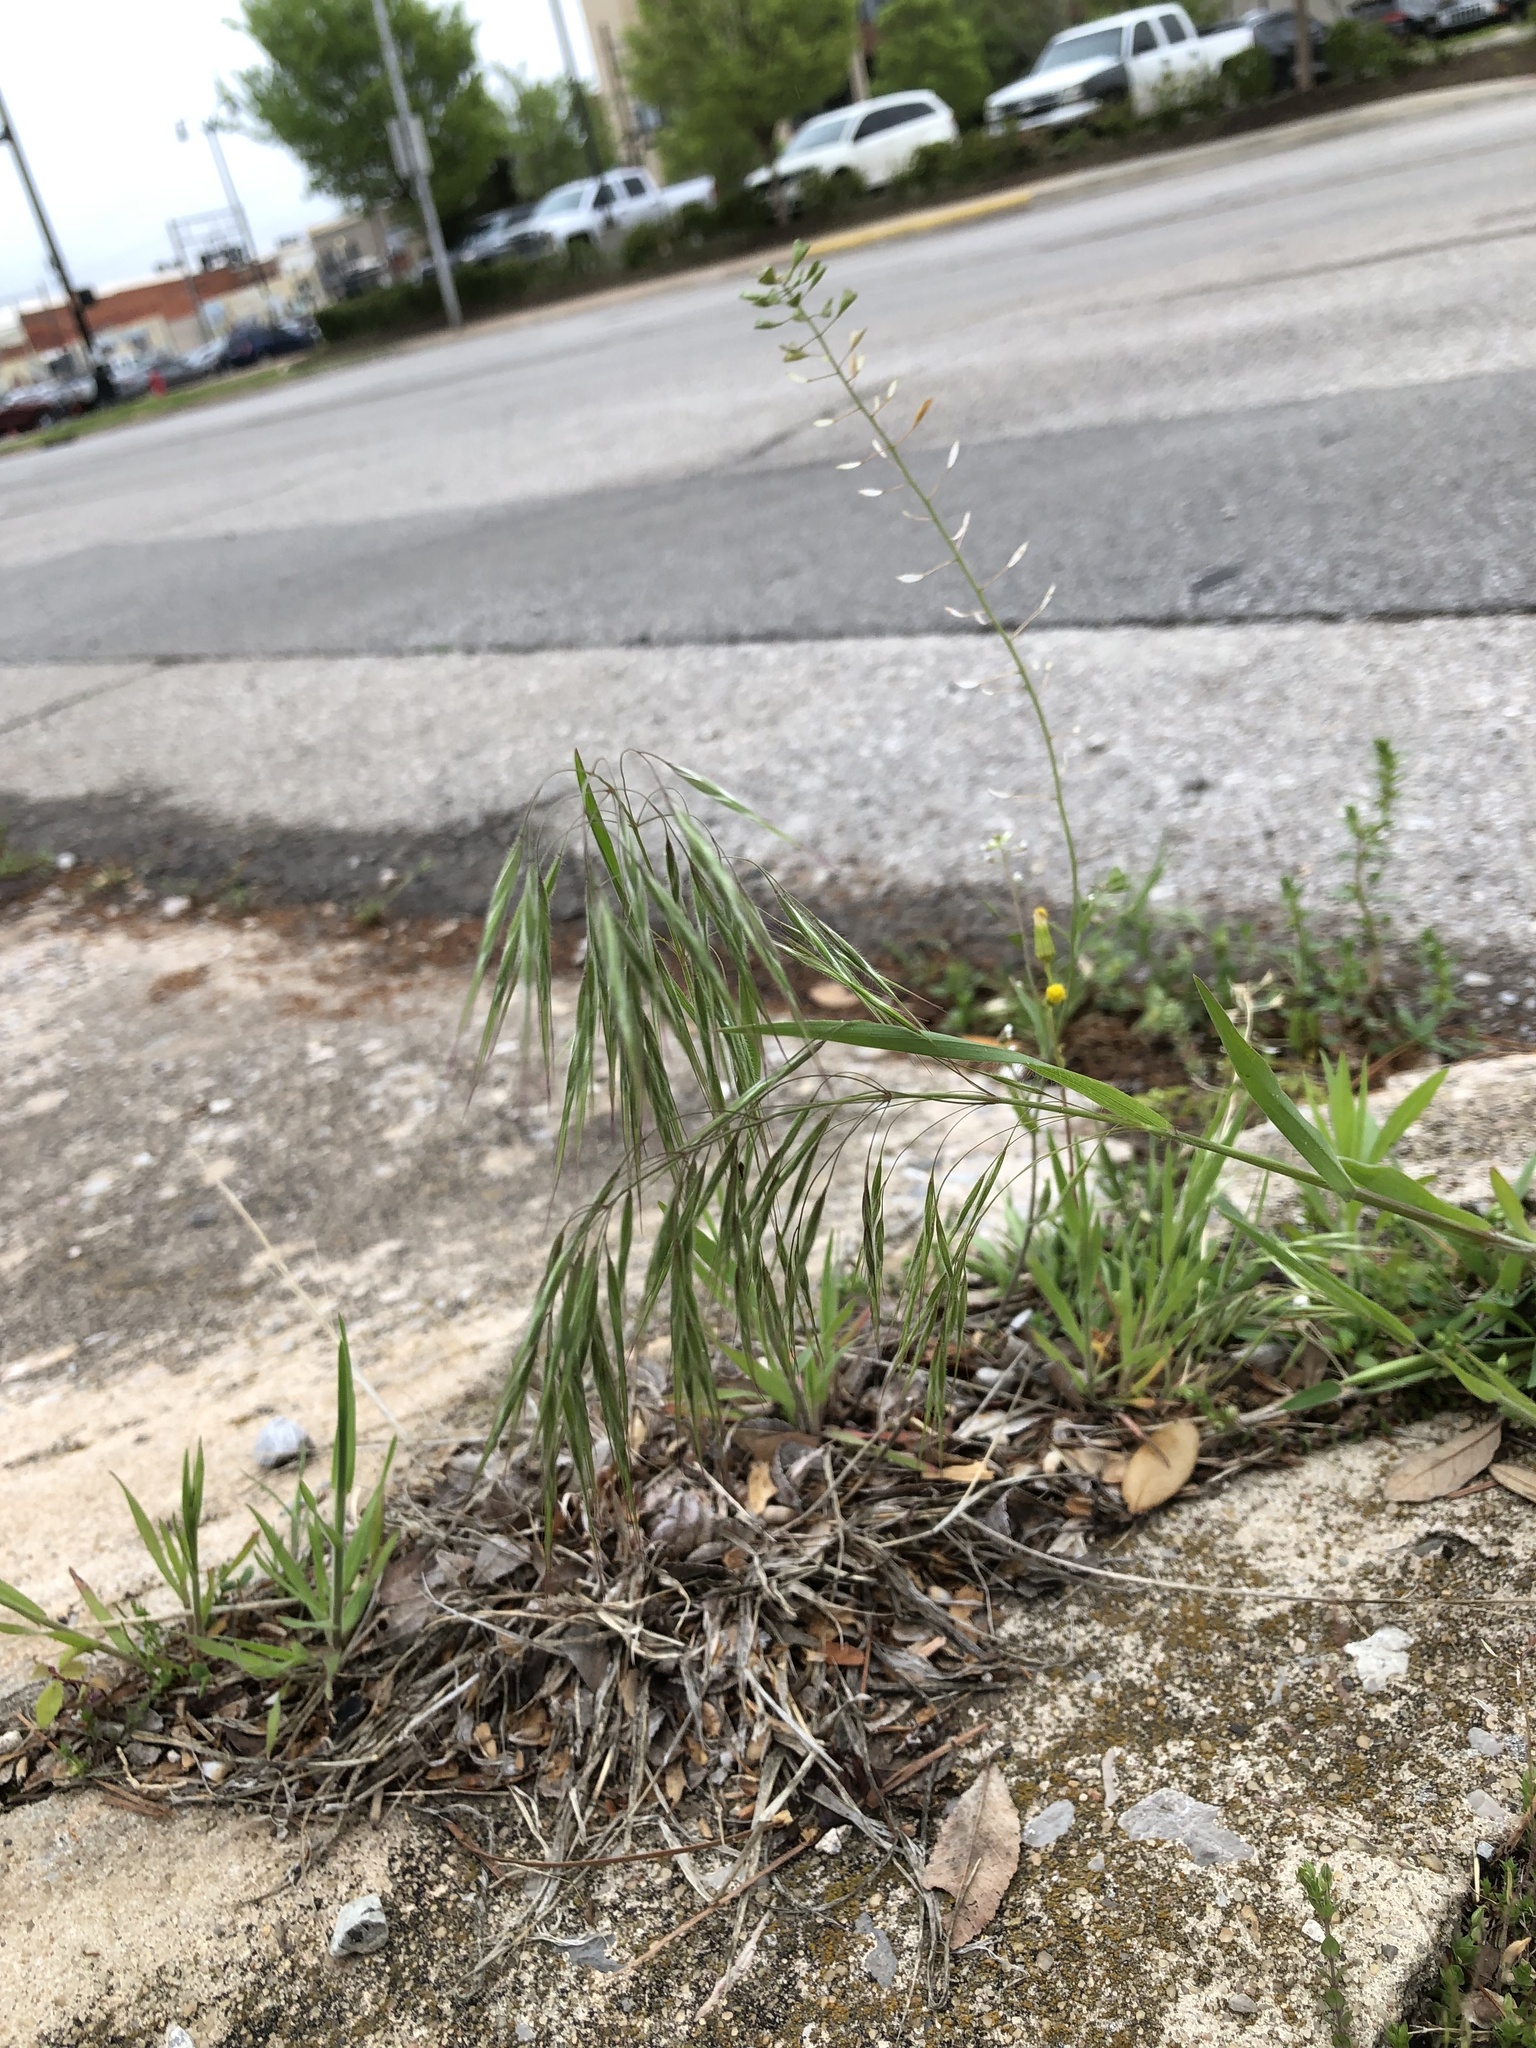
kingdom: Plantae
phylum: Tracheophyta
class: Liliopsida
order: Poales
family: Poaceae
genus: Bromus
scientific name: Bromus tectorum
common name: Cheatgrass
